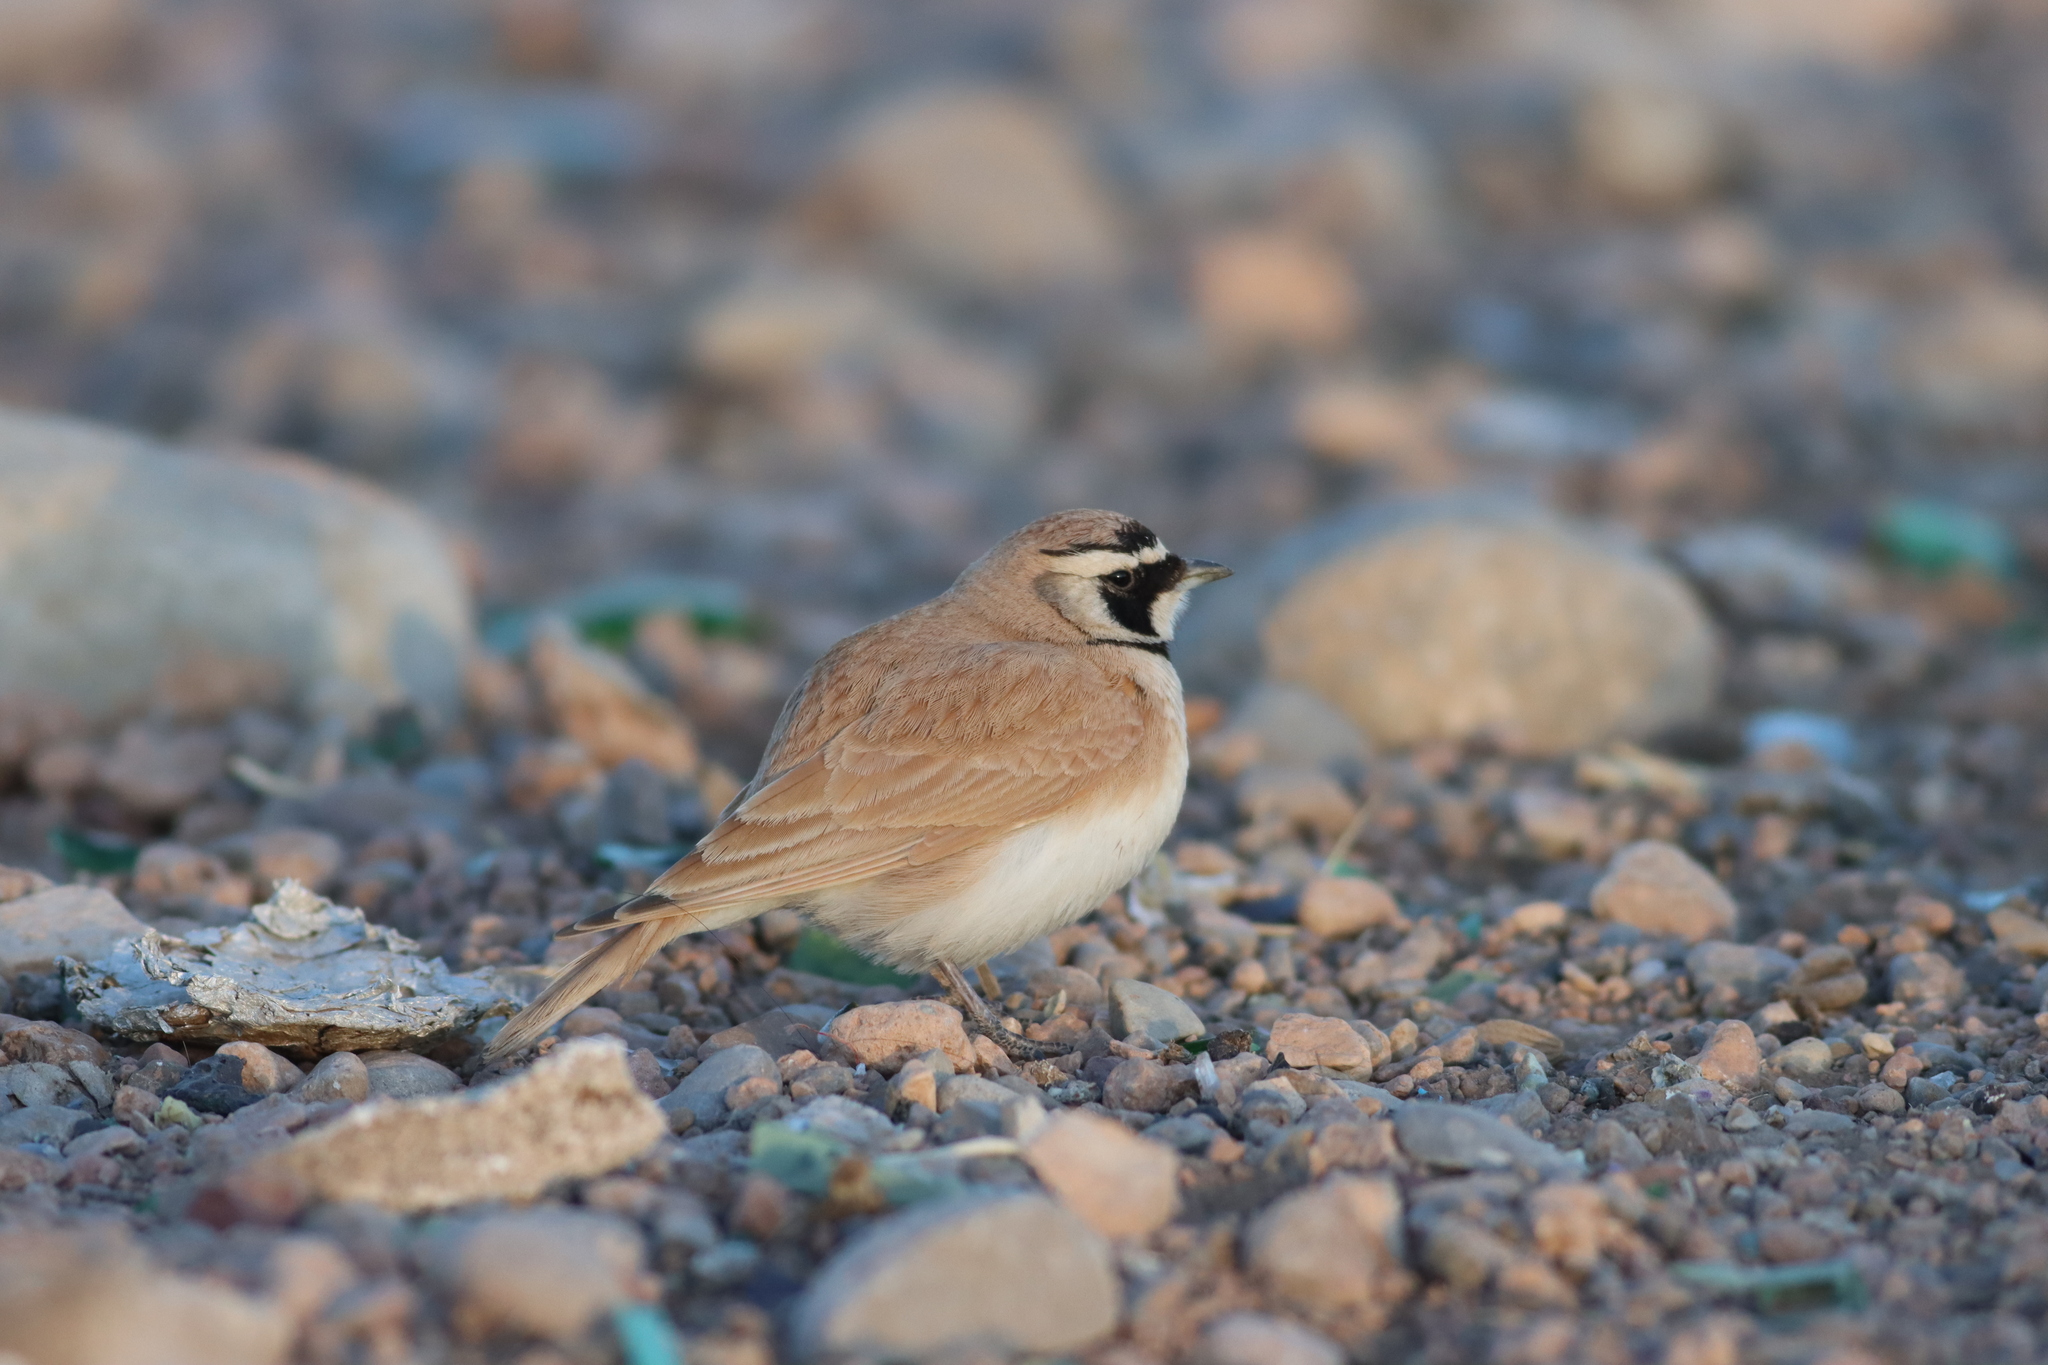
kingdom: Animalia
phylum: Chordata
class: Aves
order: Passeriformes
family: Alaudidae
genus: Eremophila
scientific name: Eremophila bilopha
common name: Temminck's lark
